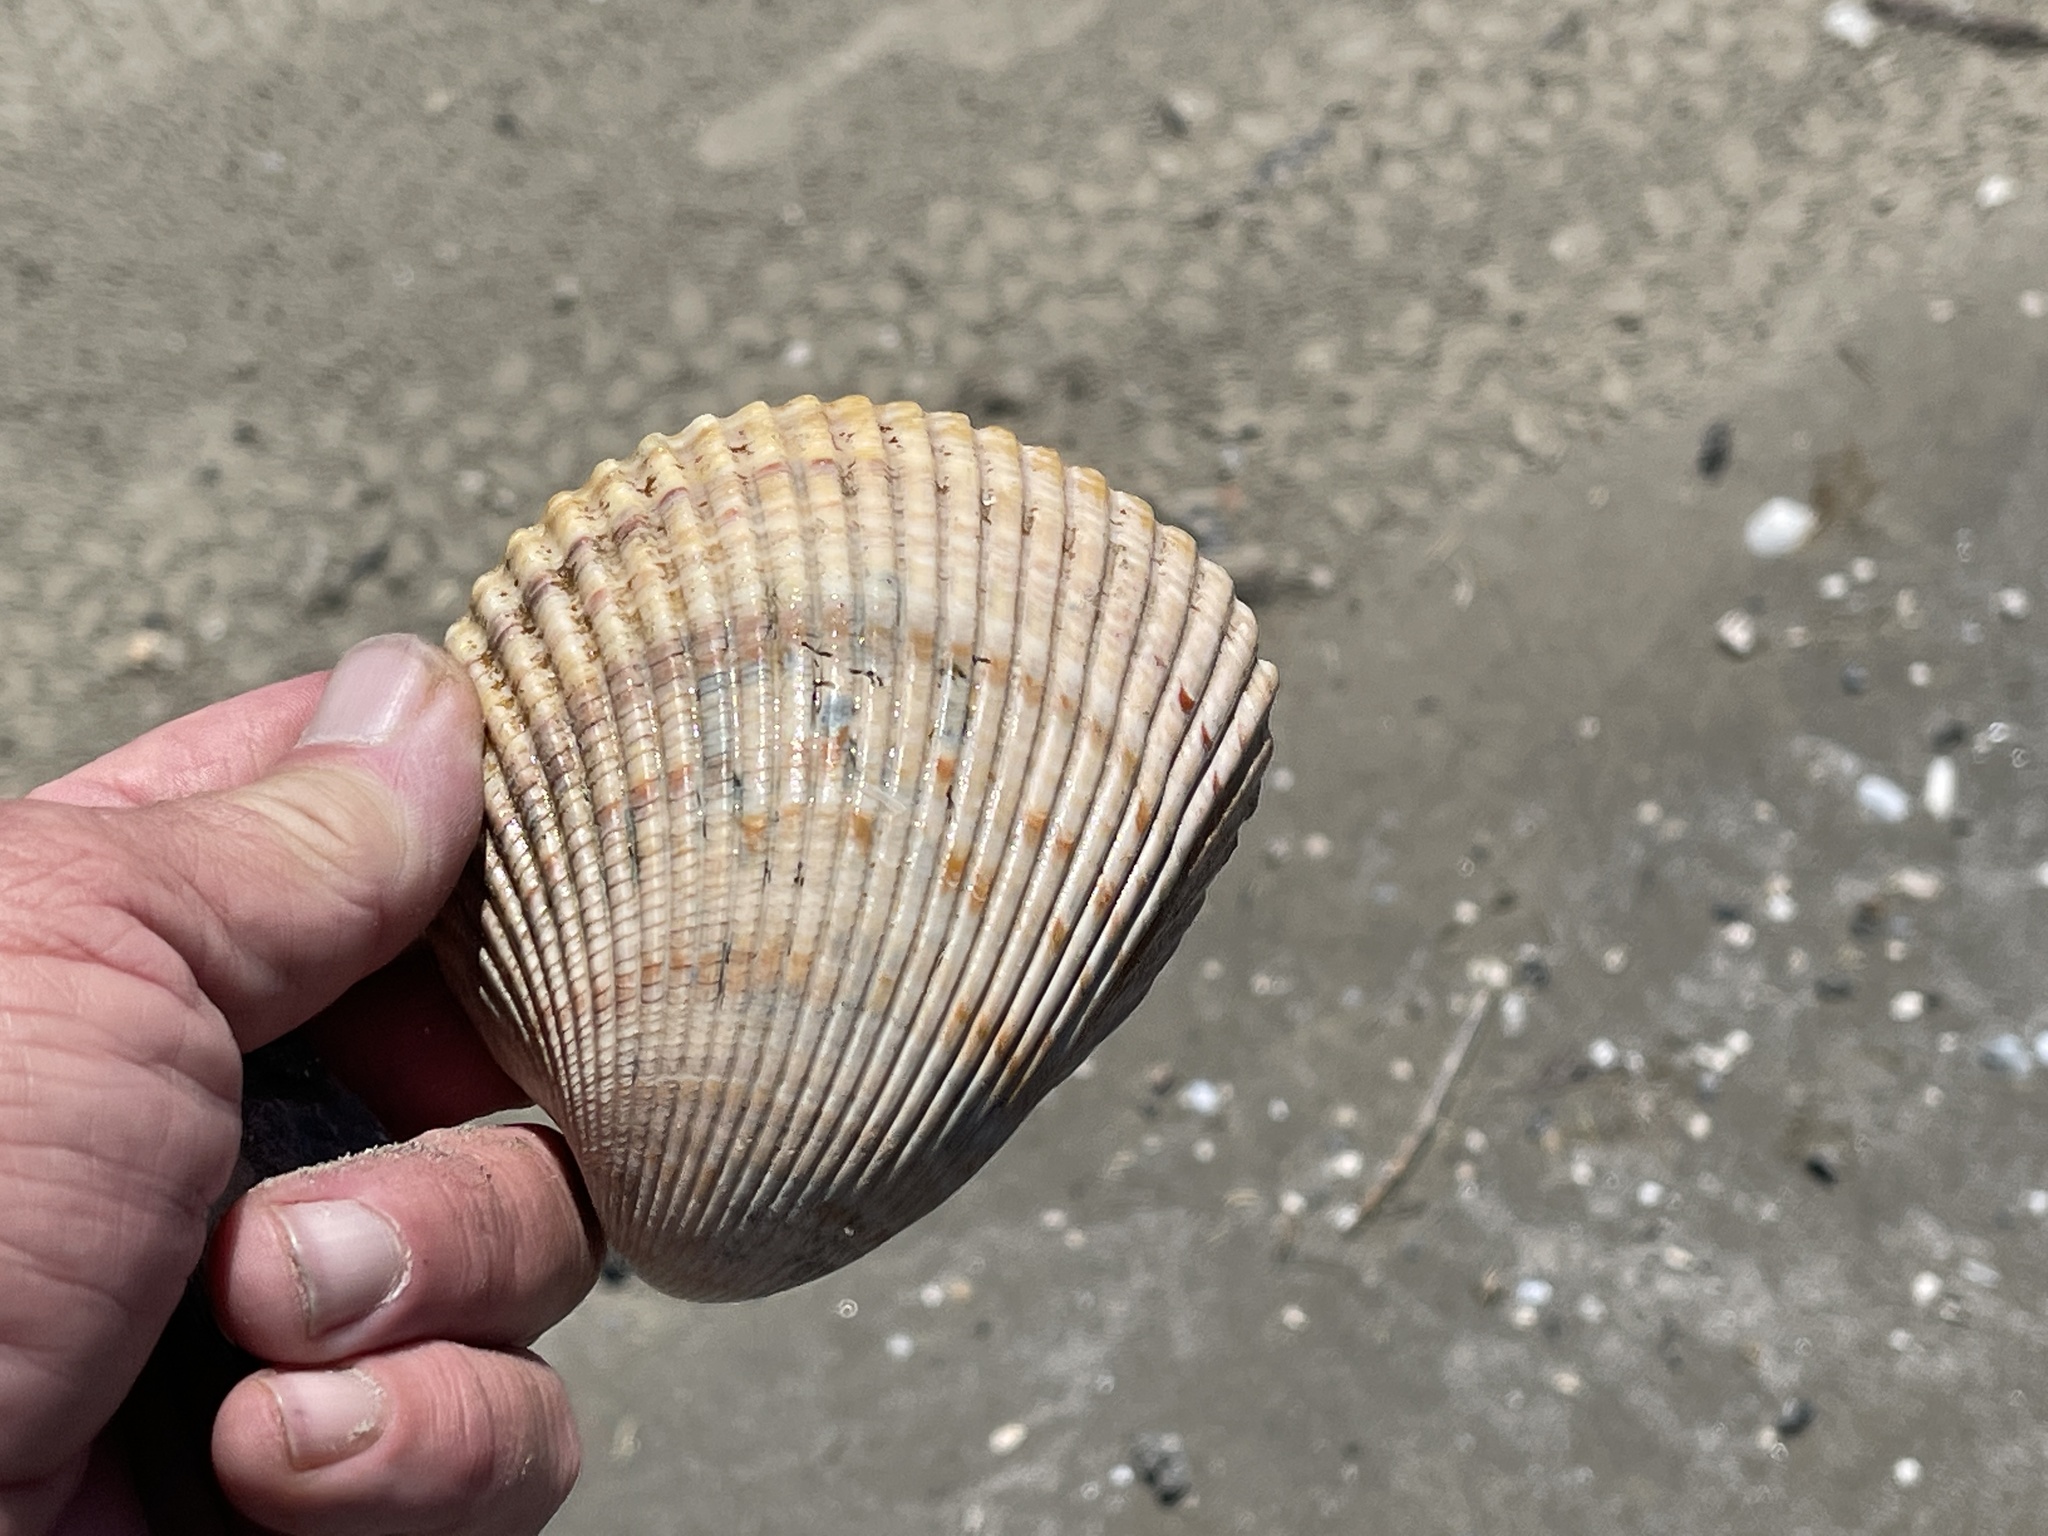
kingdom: Animalia
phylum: Mollusca
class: Bivalvia
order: Cardiida
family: Cardiidae
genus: Dinocardium
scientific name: Dinocardium robustum
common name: Atlantic giant cockle
